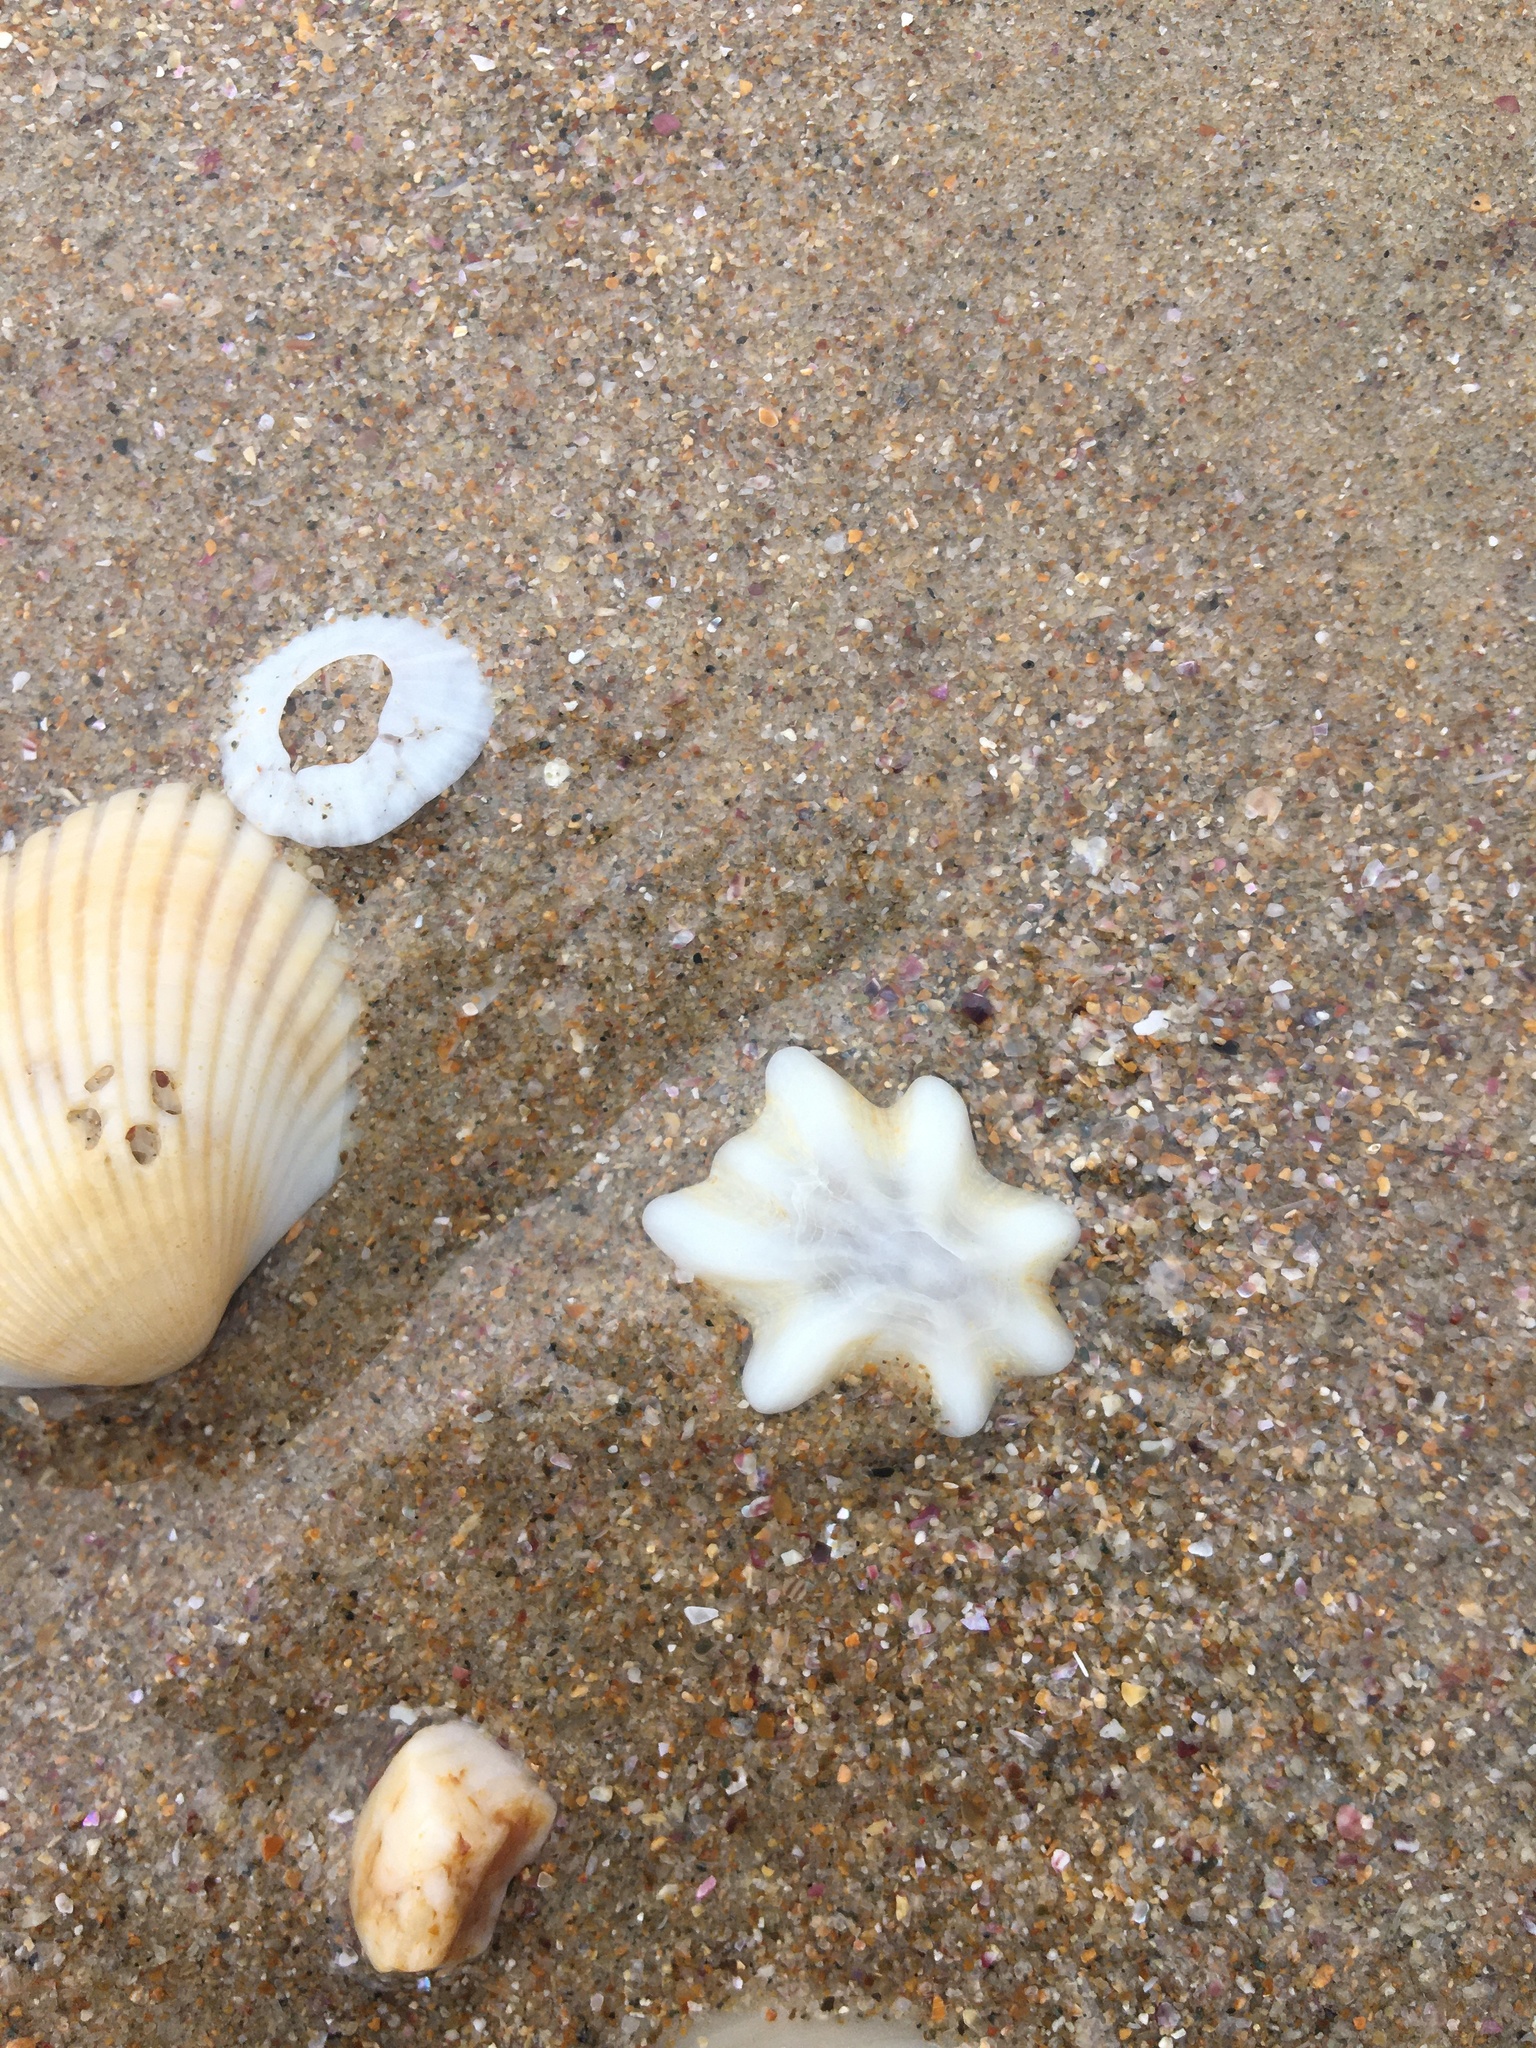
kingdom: Animalia
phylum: Mollusca
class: Gastropoda
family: Patellidae
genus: Scutellastra
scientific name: Scutellastra chapmani
